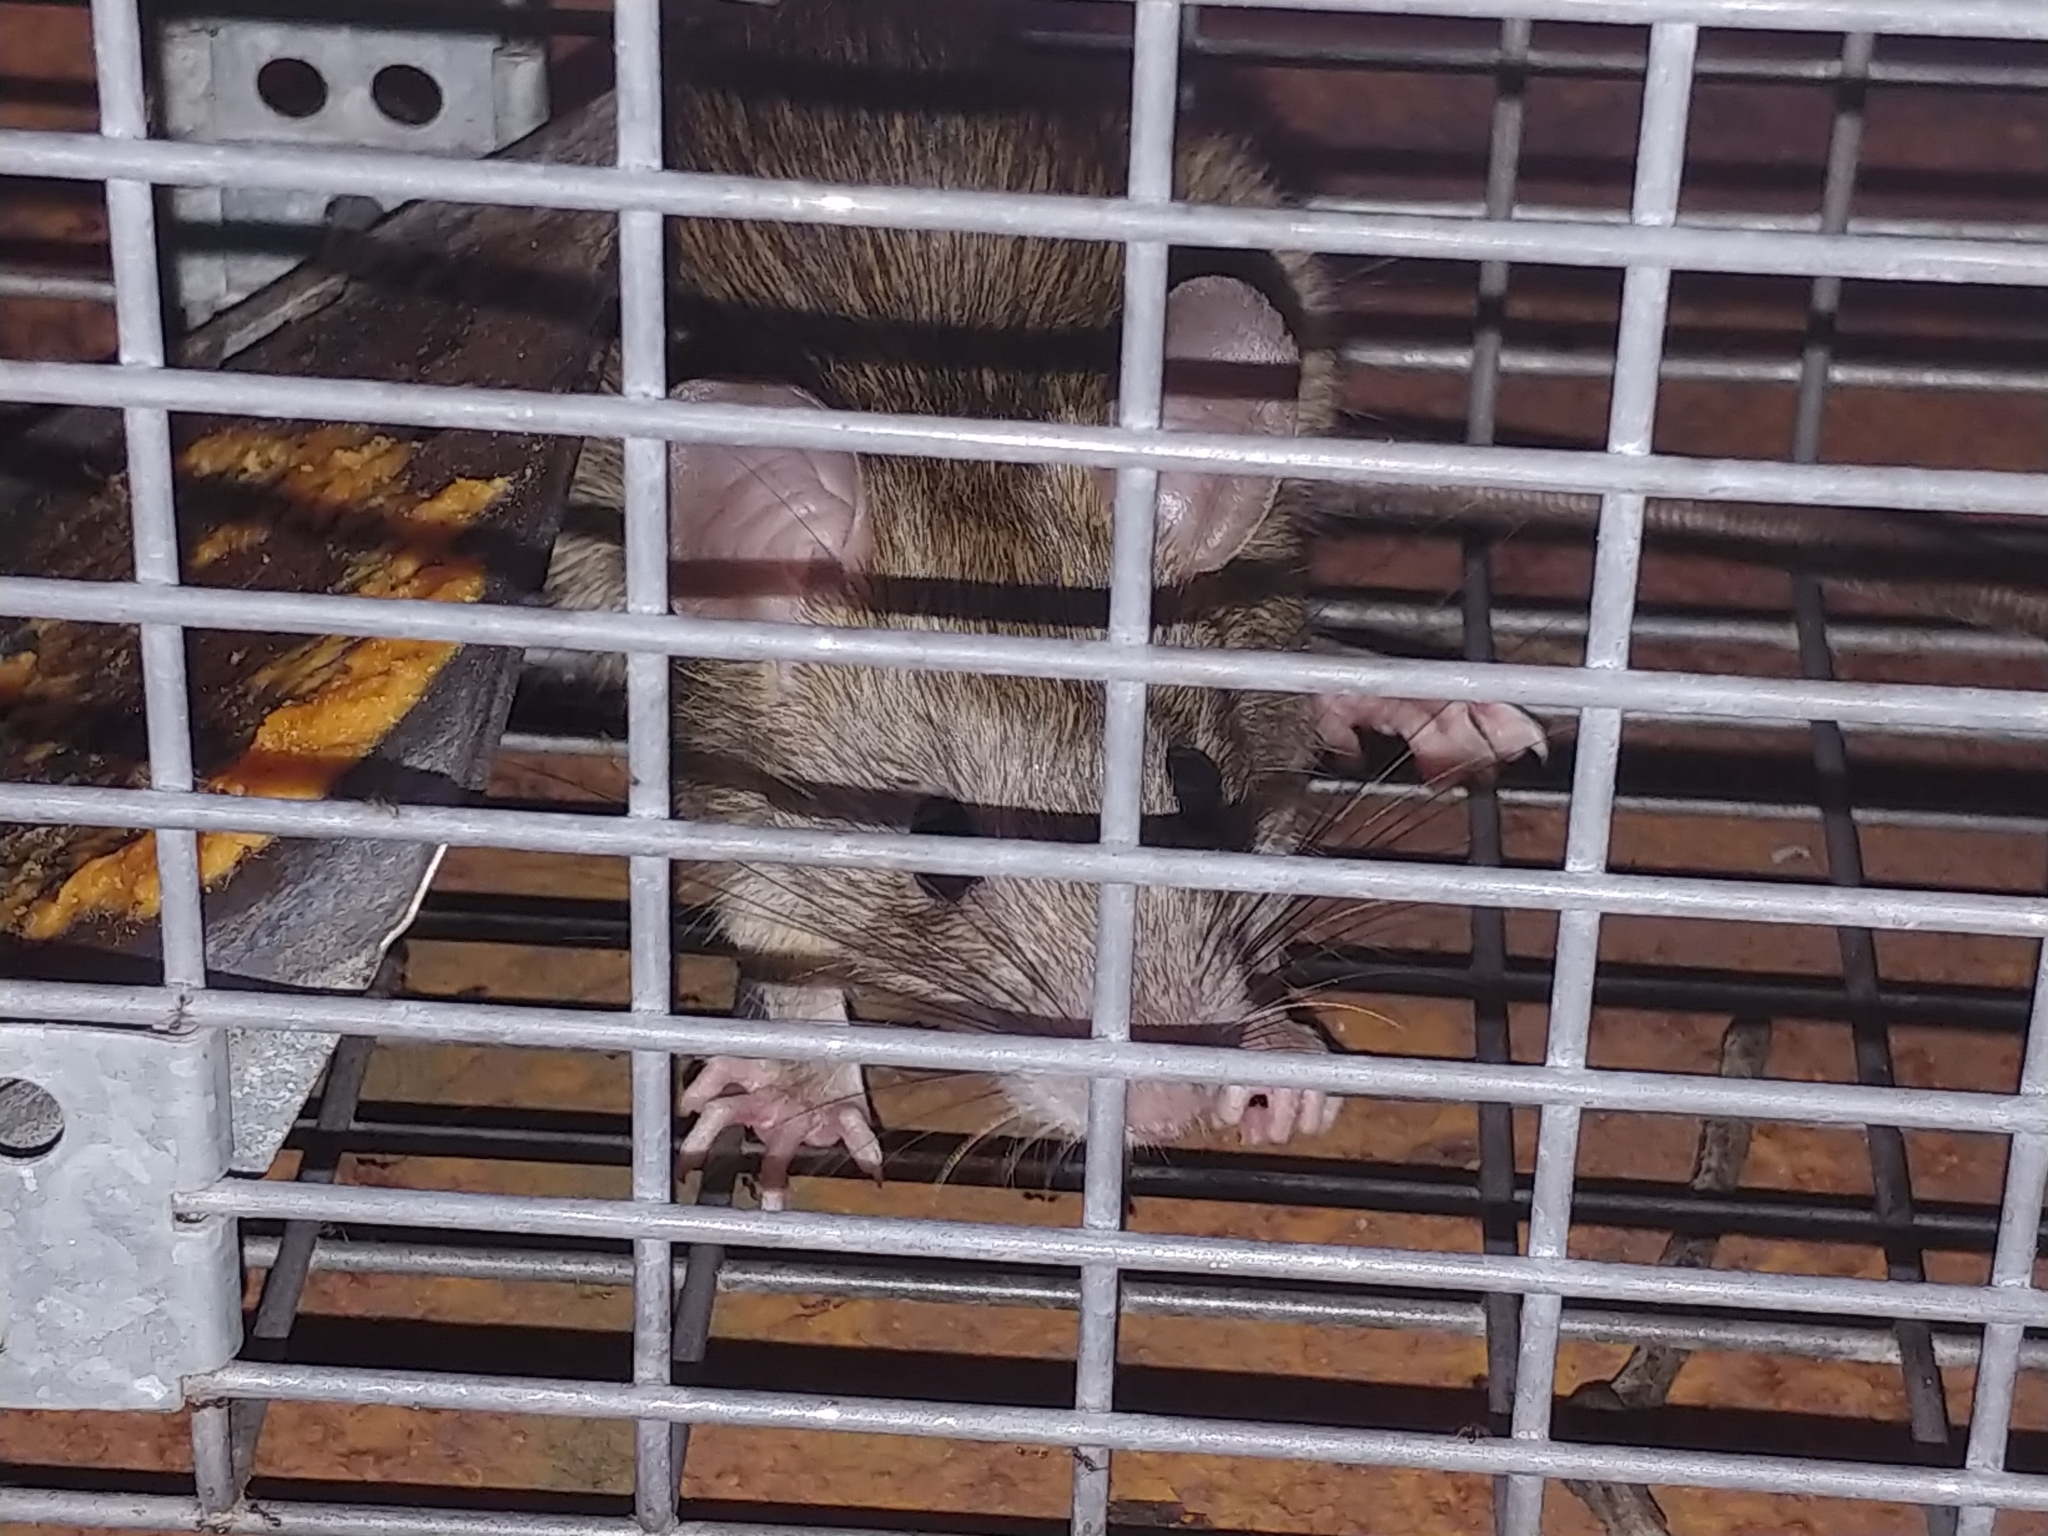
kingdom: Animalia
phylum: Chordata
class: Mammalia
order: Rodentia
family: Muridae
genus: Rattus
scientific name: Rattus rattus
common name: Black rat
